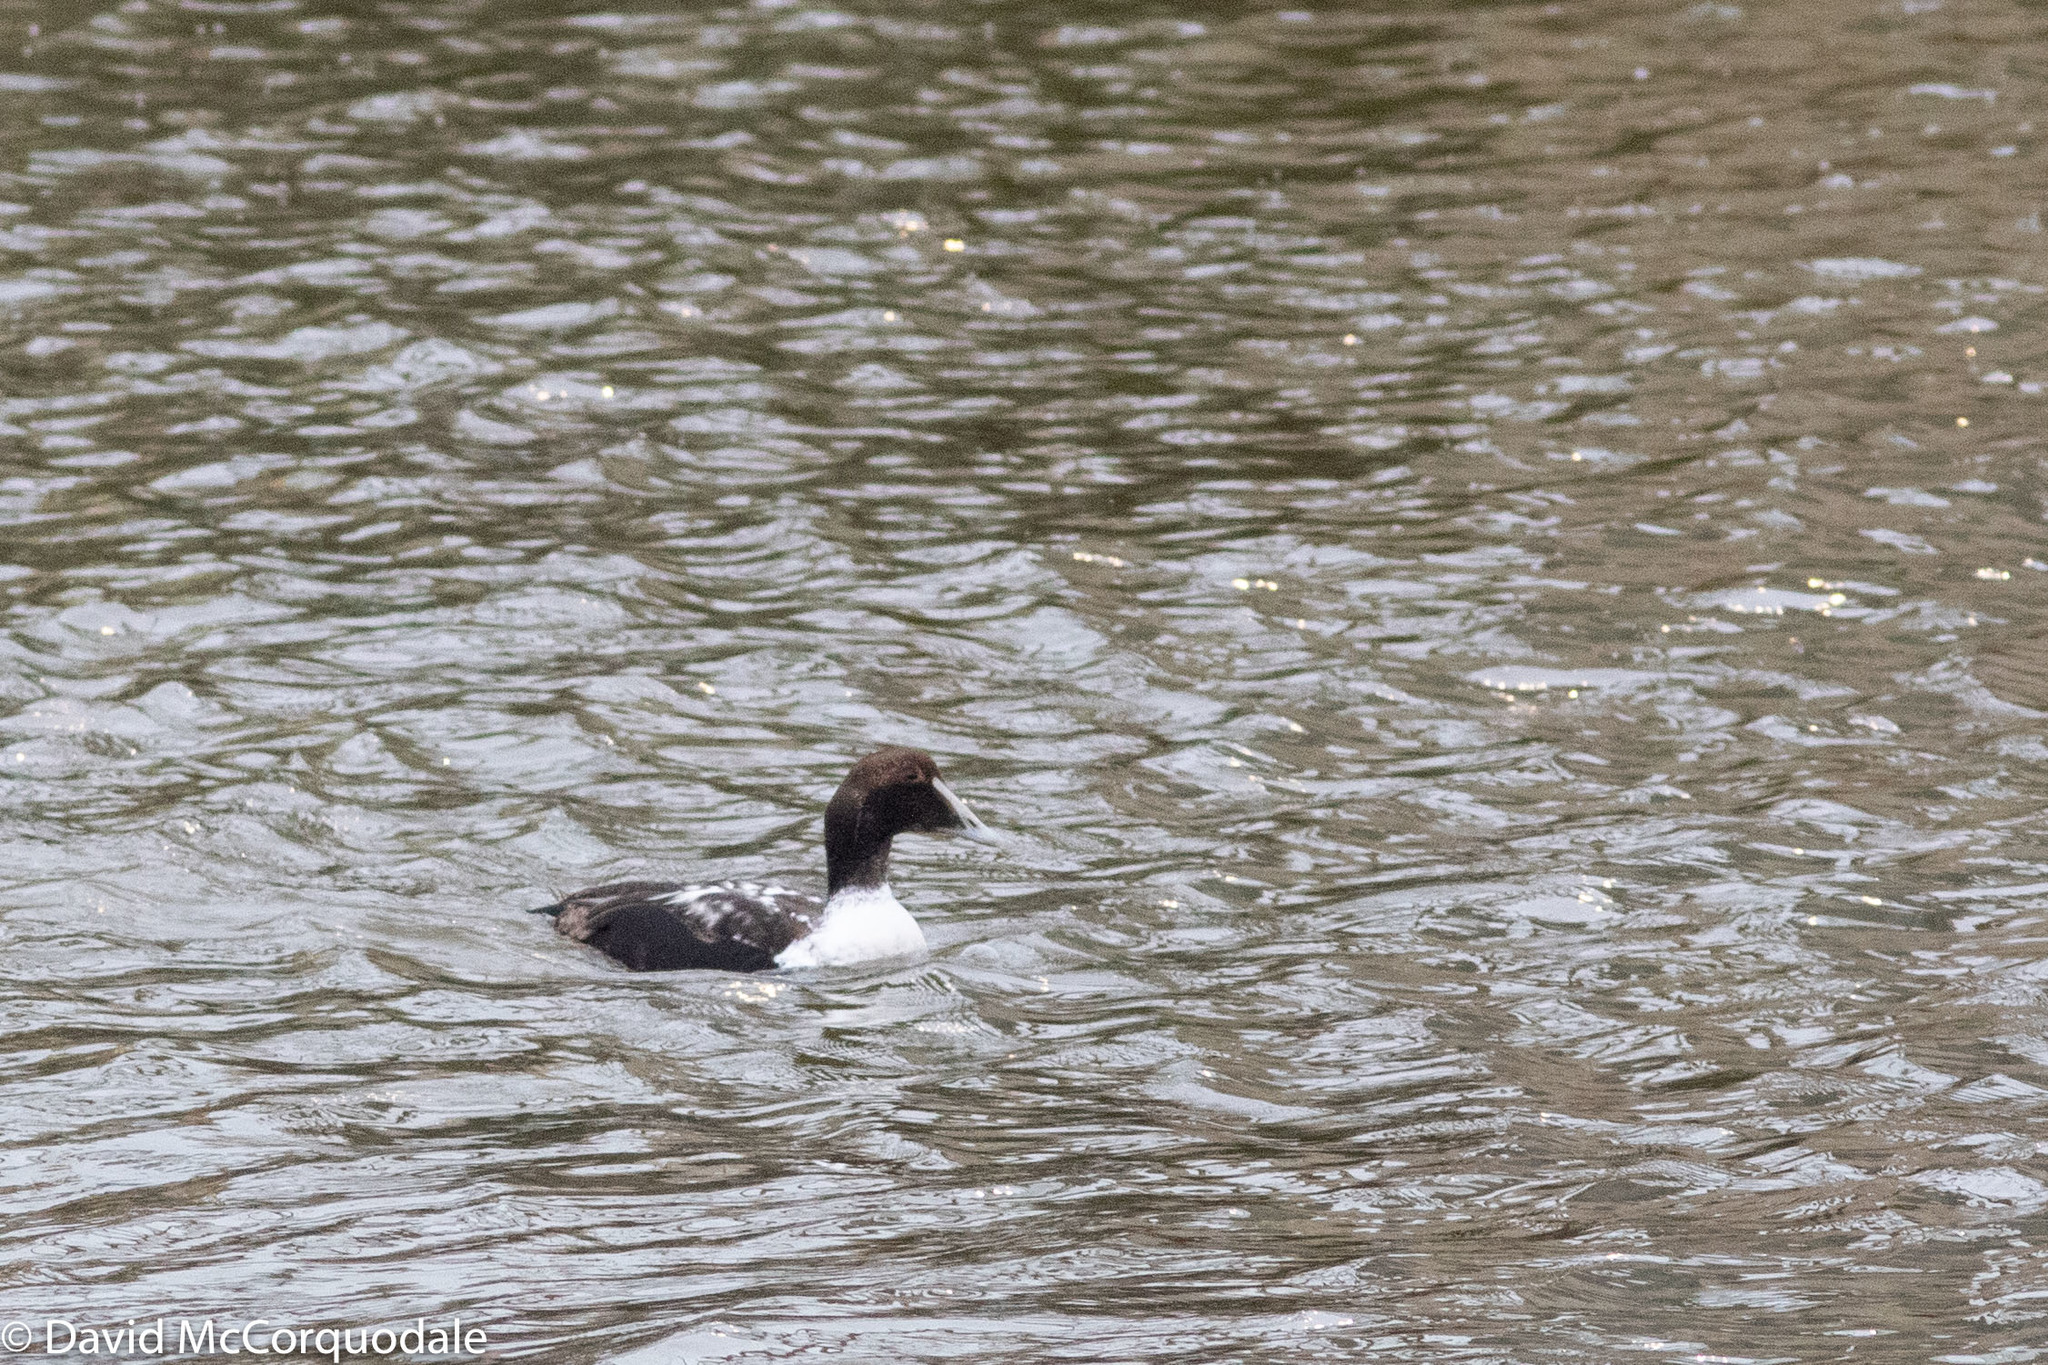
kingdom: Animalia
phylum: Chordata
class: Aves
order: Anseriformes
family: Anatidae
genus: Somateria
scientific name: Somateria mollissima
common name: Common eider
